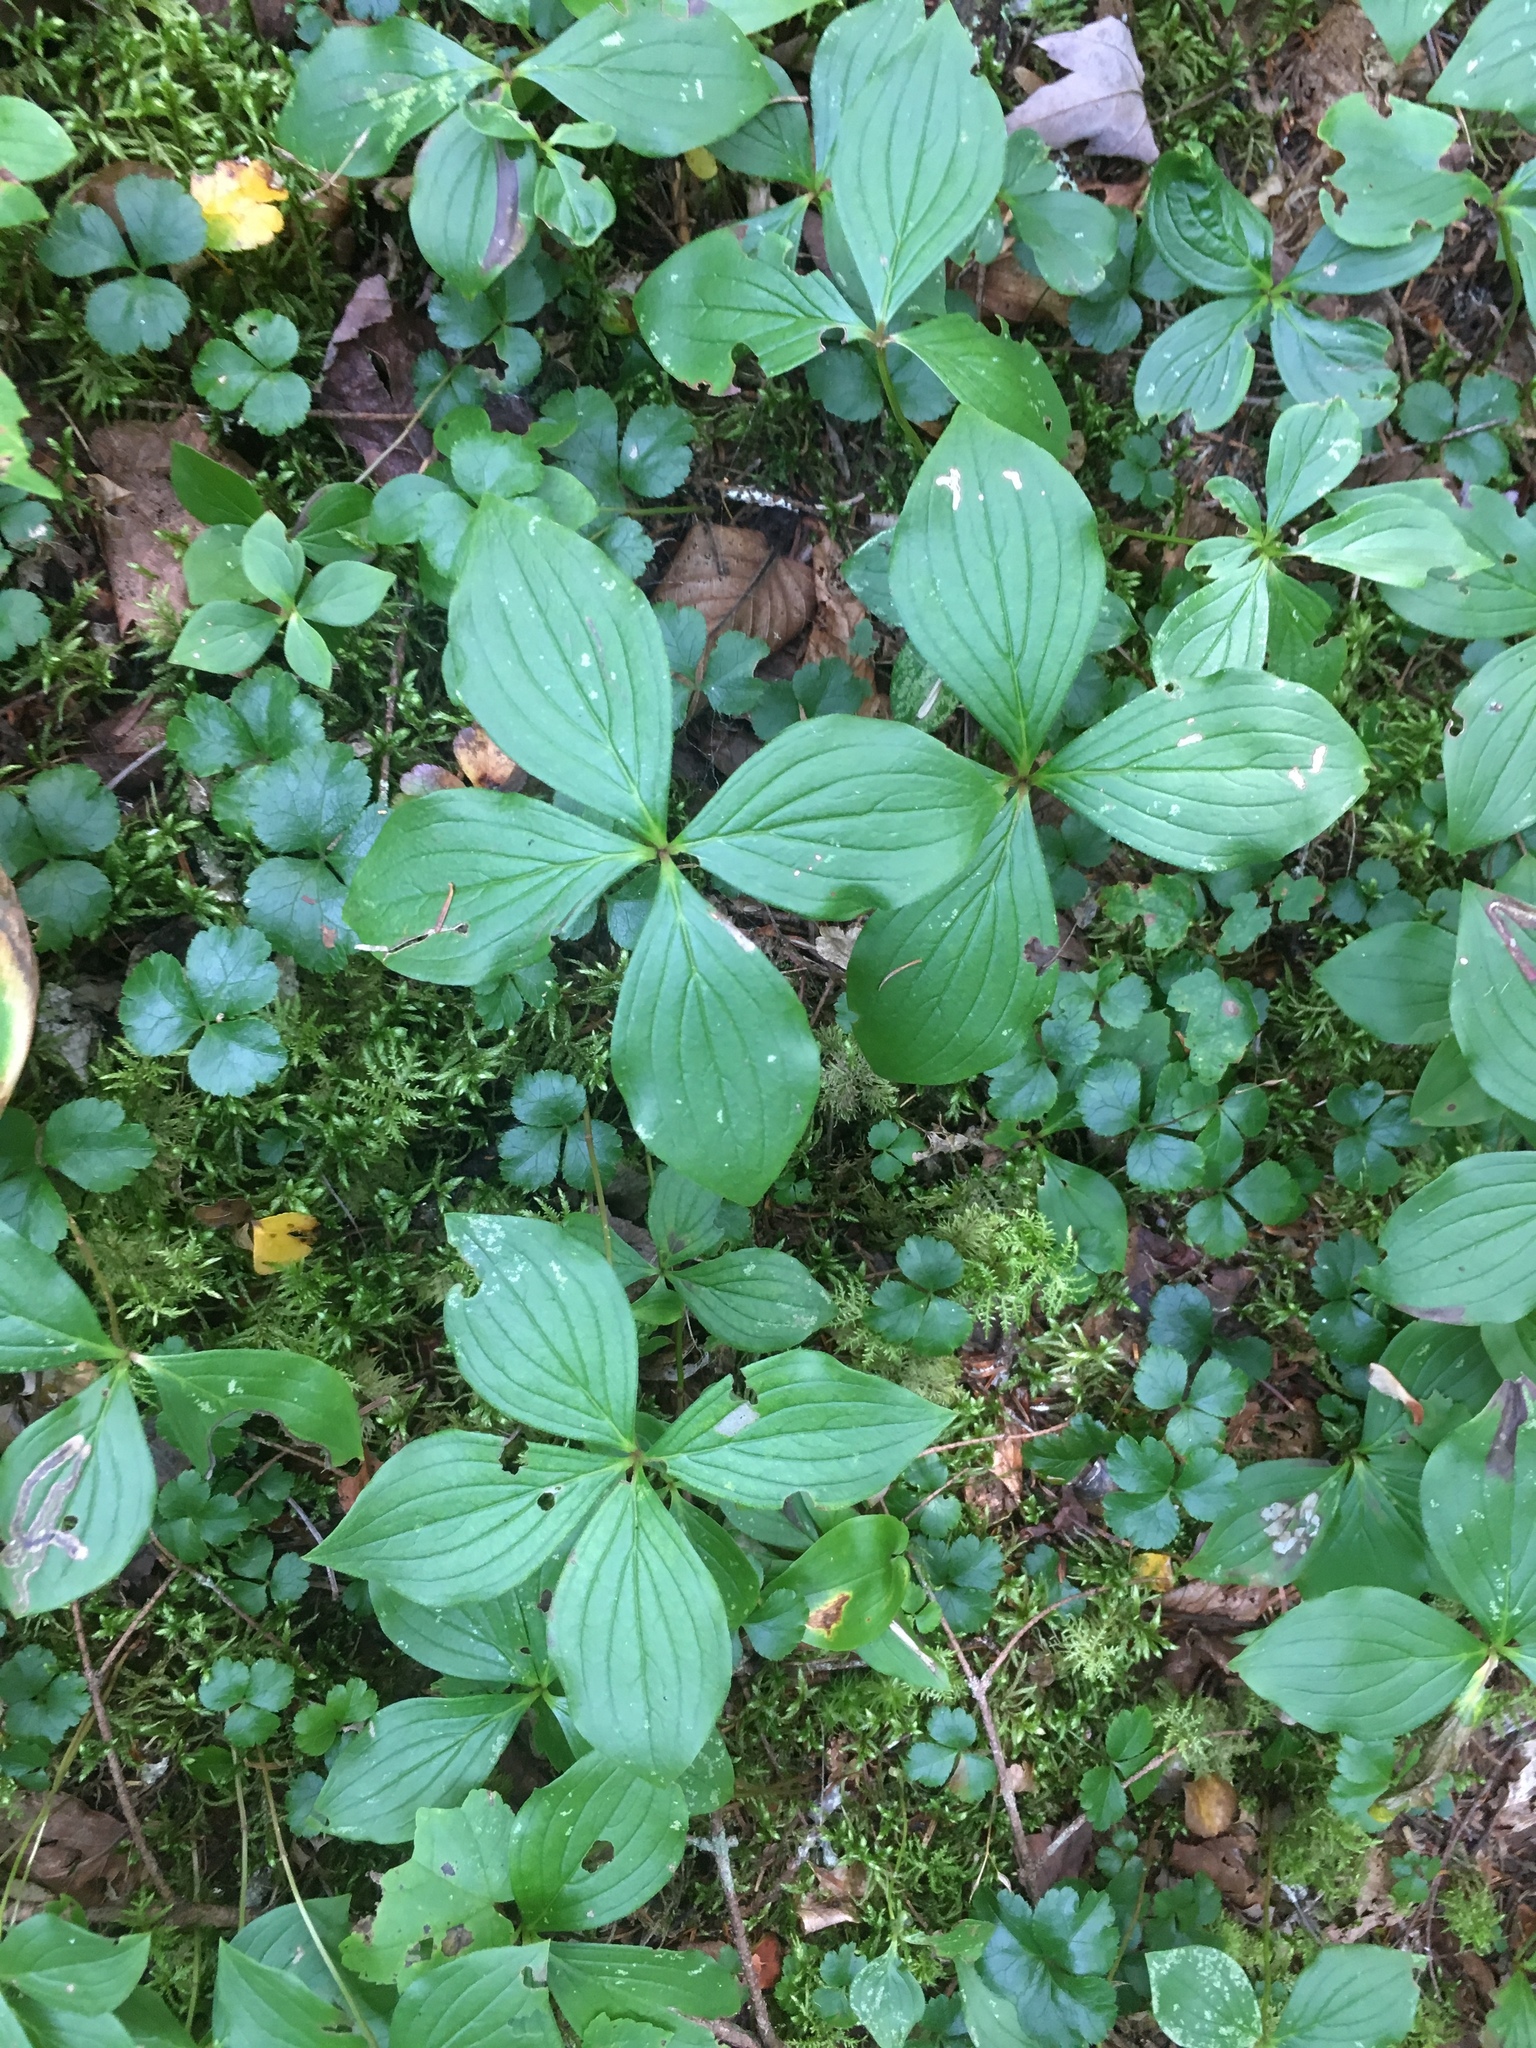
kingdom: Plantae
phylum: Tracheophyta
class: Magnoliopsida
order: Cornales
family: Cornaceae
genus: Cornus
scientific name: Cornus canadensis
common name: Creeping dogwood
